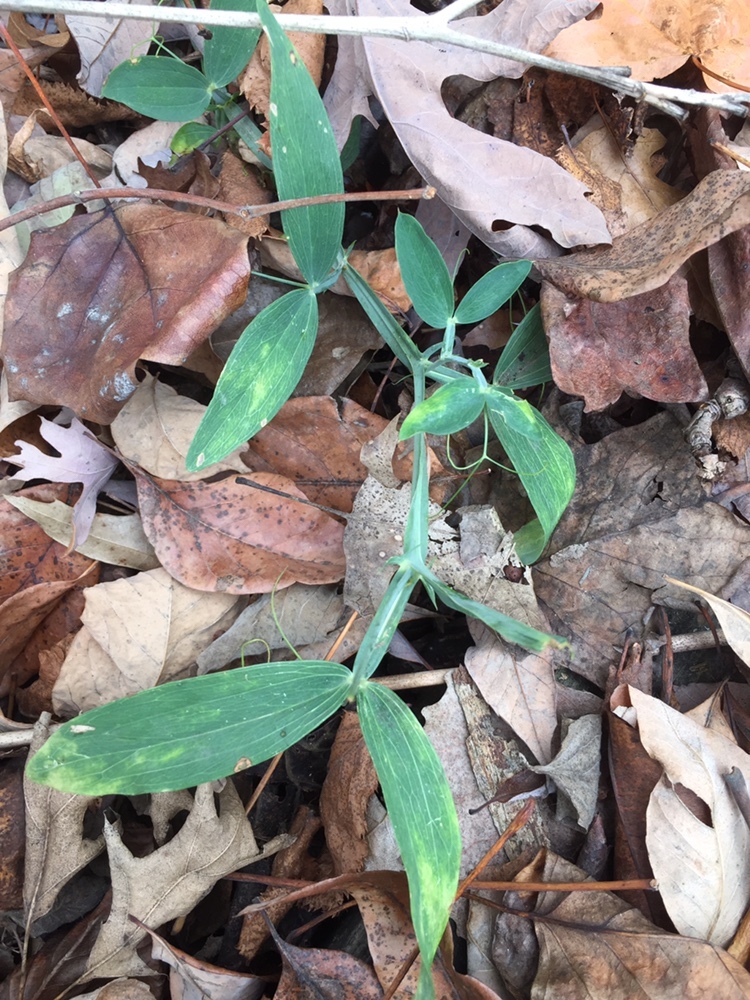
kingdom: Plantae
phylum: Tracheophyta
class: Magnoliopsida
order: Fabales
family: Fabaceae
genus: Lathyrus
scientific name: Lathyrus latifolius
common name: Perennial pea
